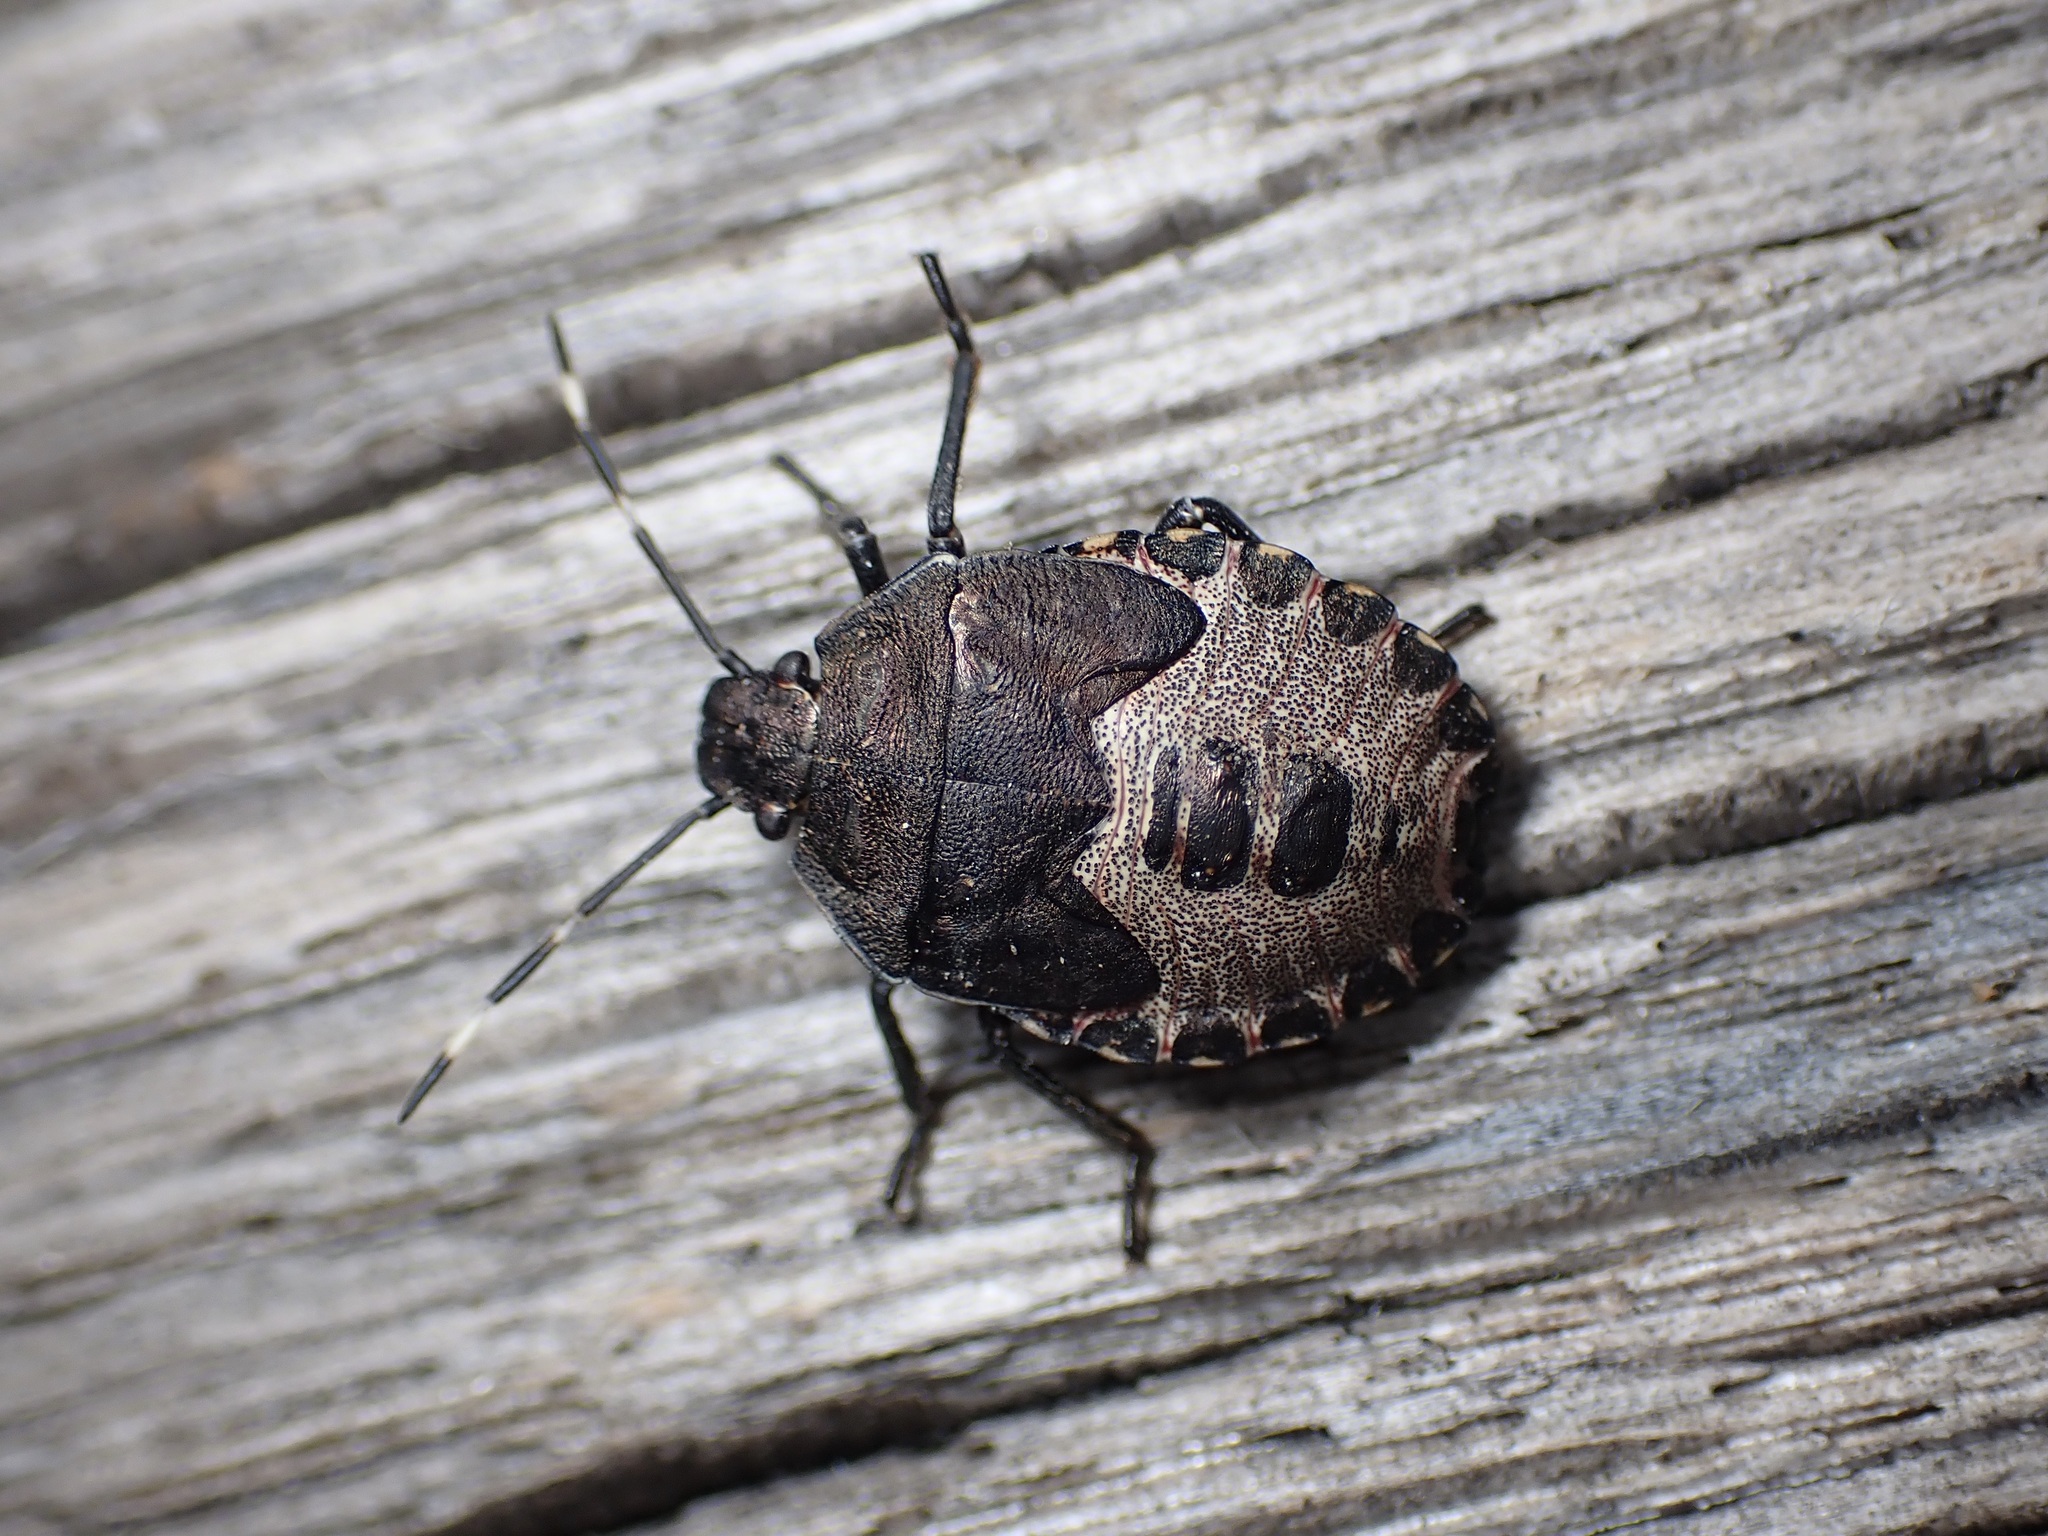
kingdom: Animalia
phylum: Arthropoda
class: Insecta
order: Hemiptera
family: Pentatomidae
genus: Rhaphigaster
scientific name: Rhaphigaster nebulosa
